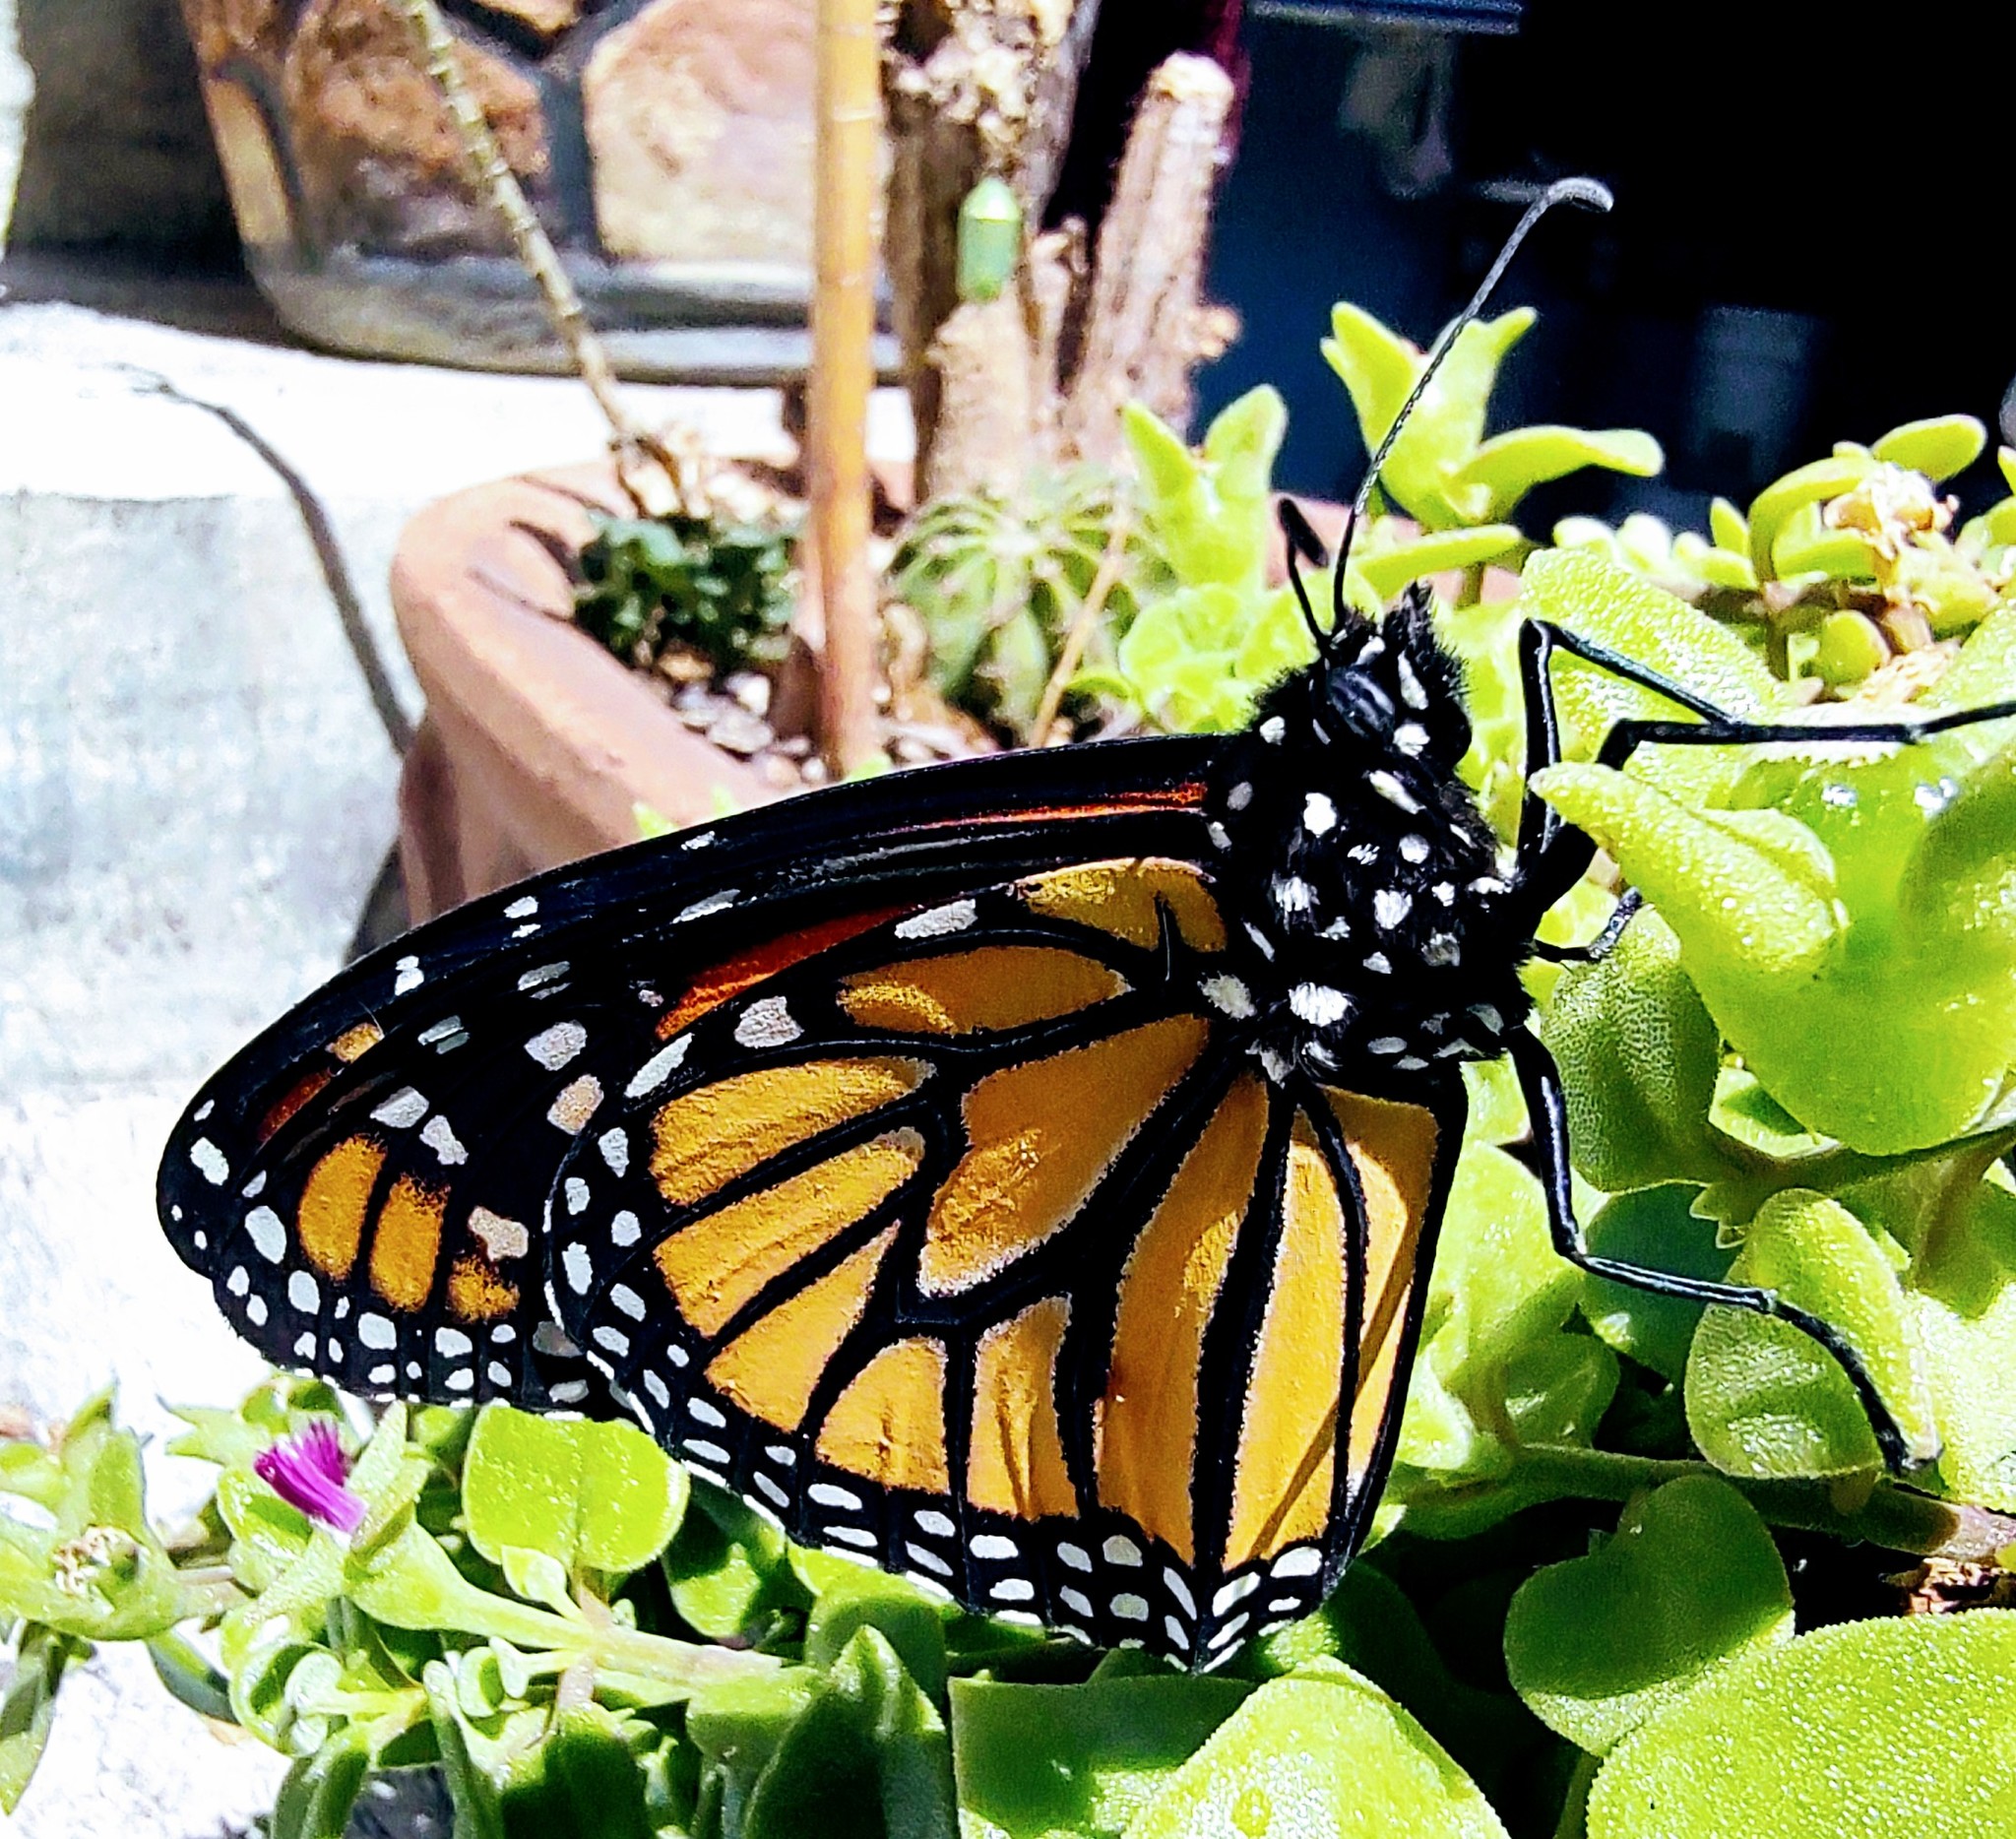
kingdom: Animalia
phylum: Arthropoda
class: Insecta
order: Lepidoptera
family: Nymphalidae
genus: Danaus
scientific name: Danaus plexippus
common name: Monarch
